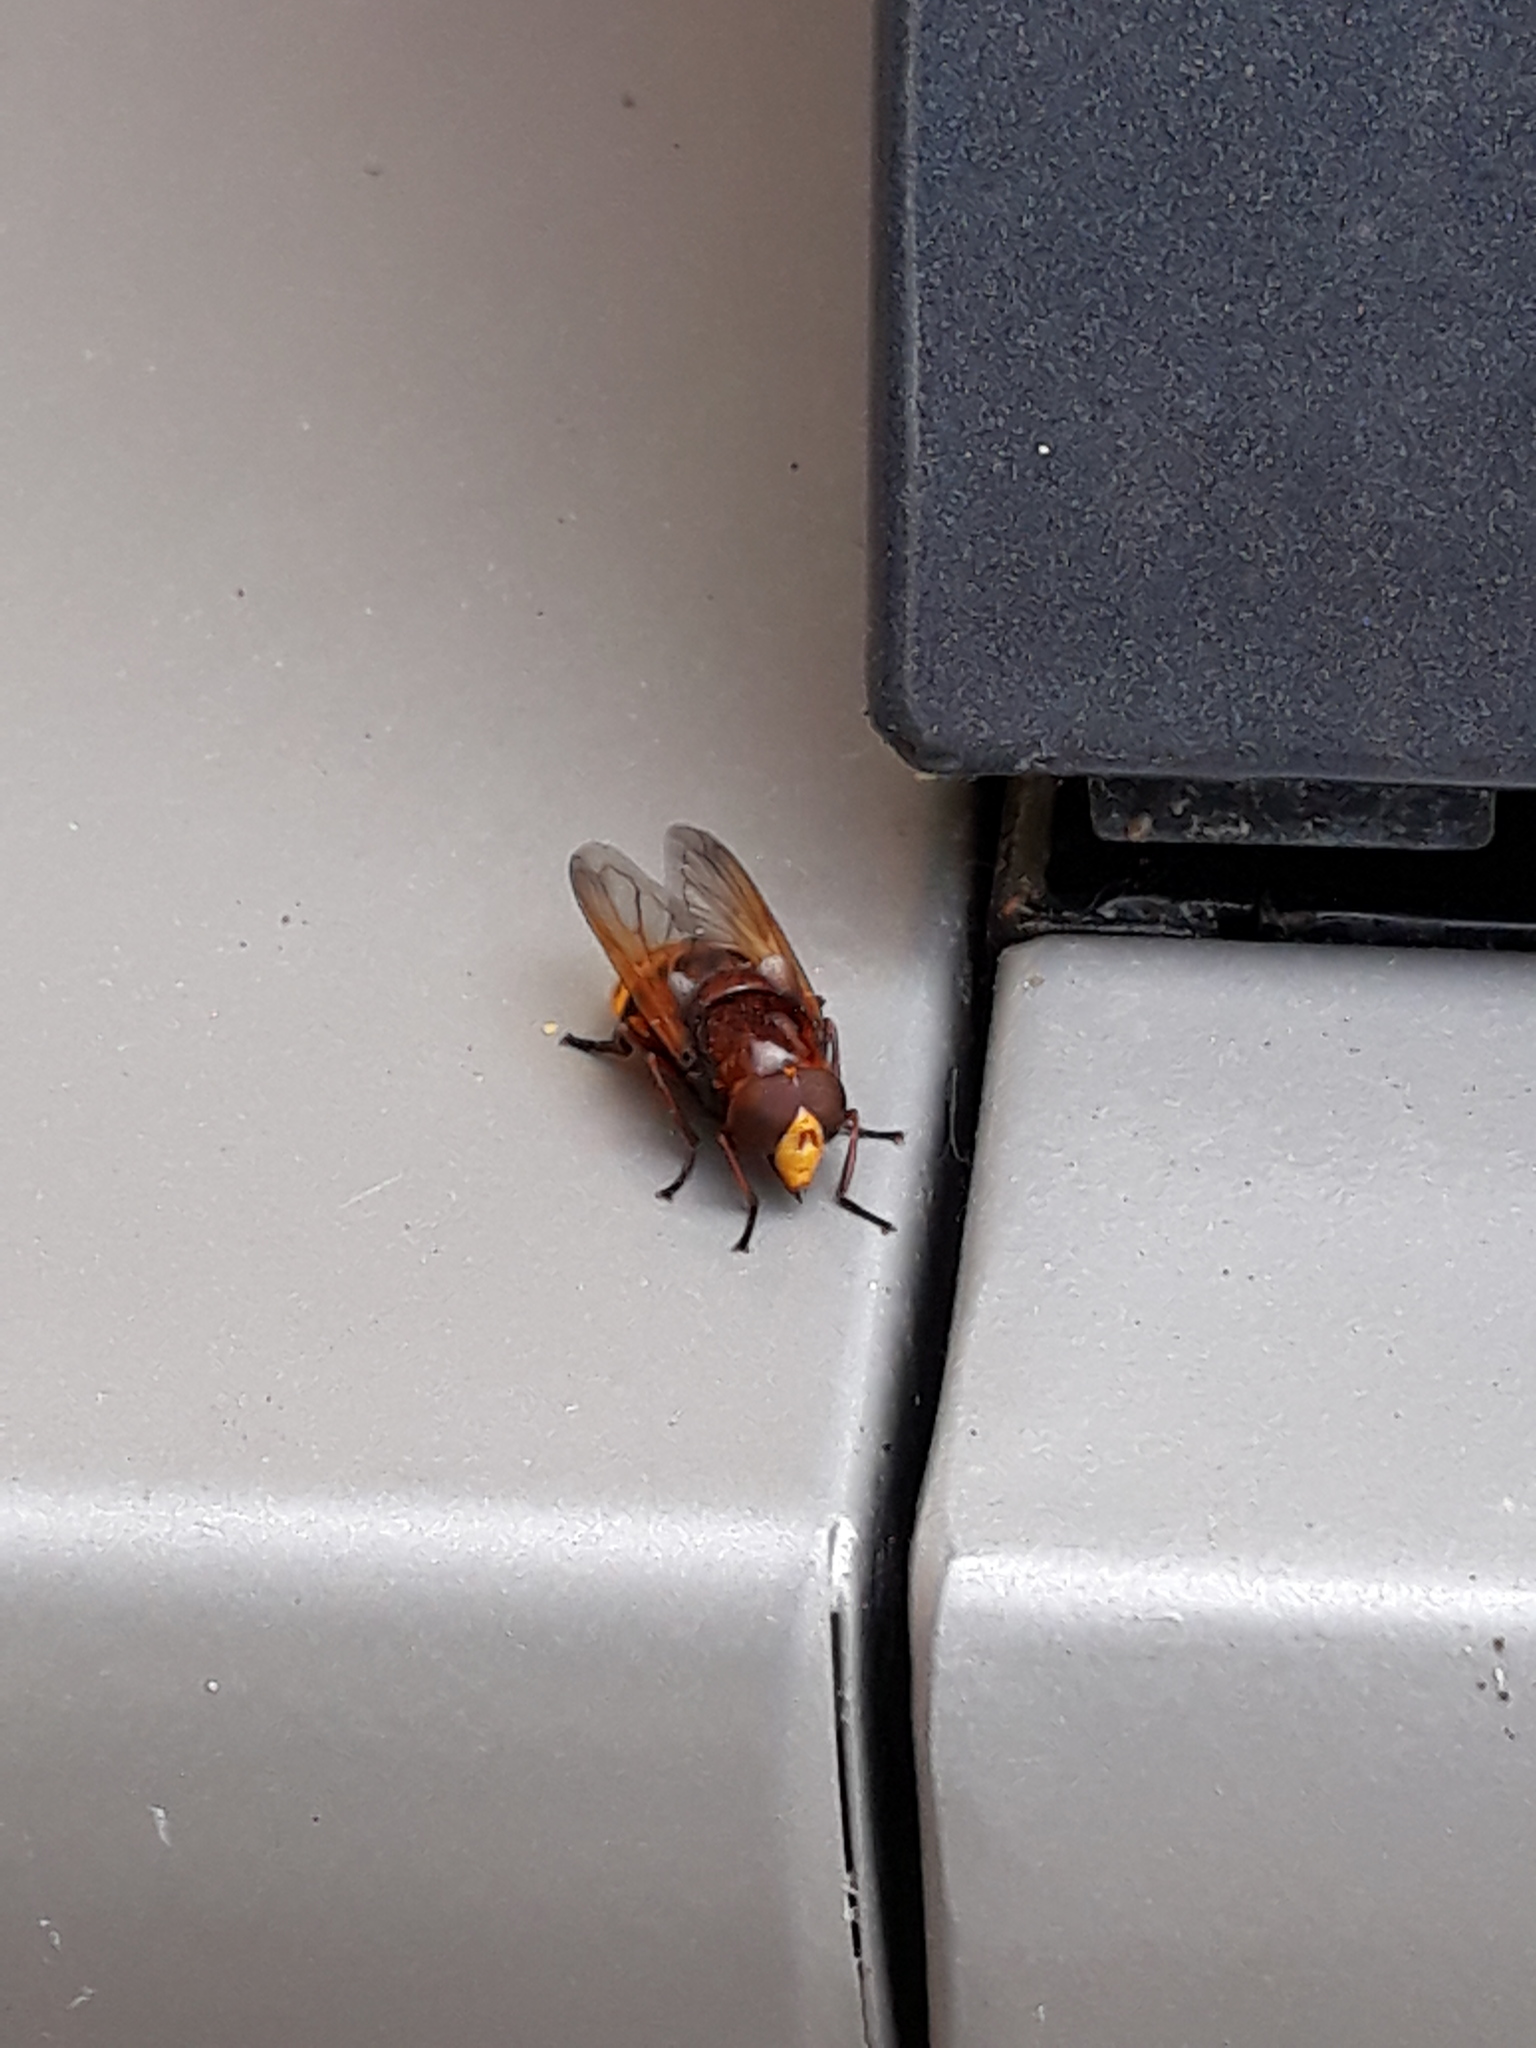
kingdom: Animalia
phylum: Arthropoda
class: Insecta
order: Diptera
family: Syrphidae
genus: Volucella
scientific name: Volucella zonaria
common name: Hornet hoverfly
